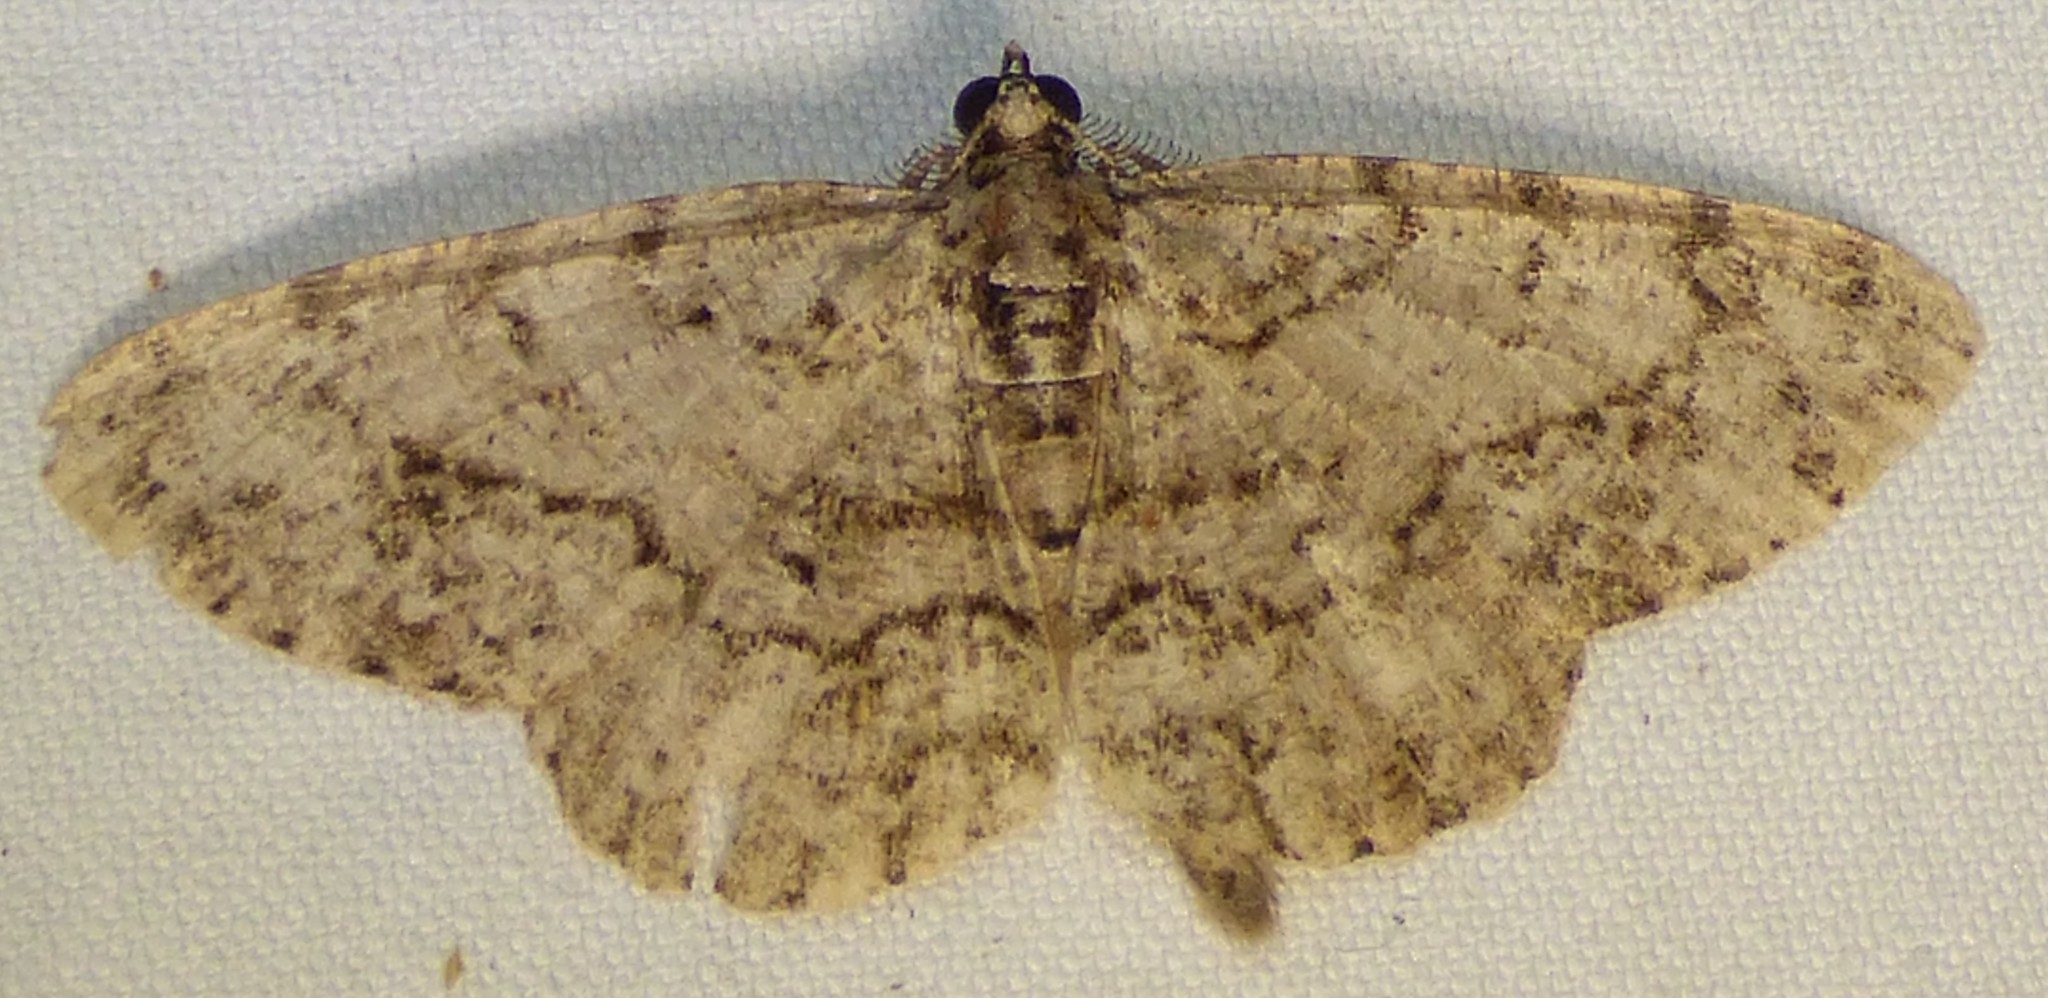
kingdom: Animalia
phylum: Arthropoda
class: Insecta
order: Lepidoptera
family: Geometridae
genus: Protoboarmia
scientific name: Protoboarmia porcelaria
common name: Porcelain gray
